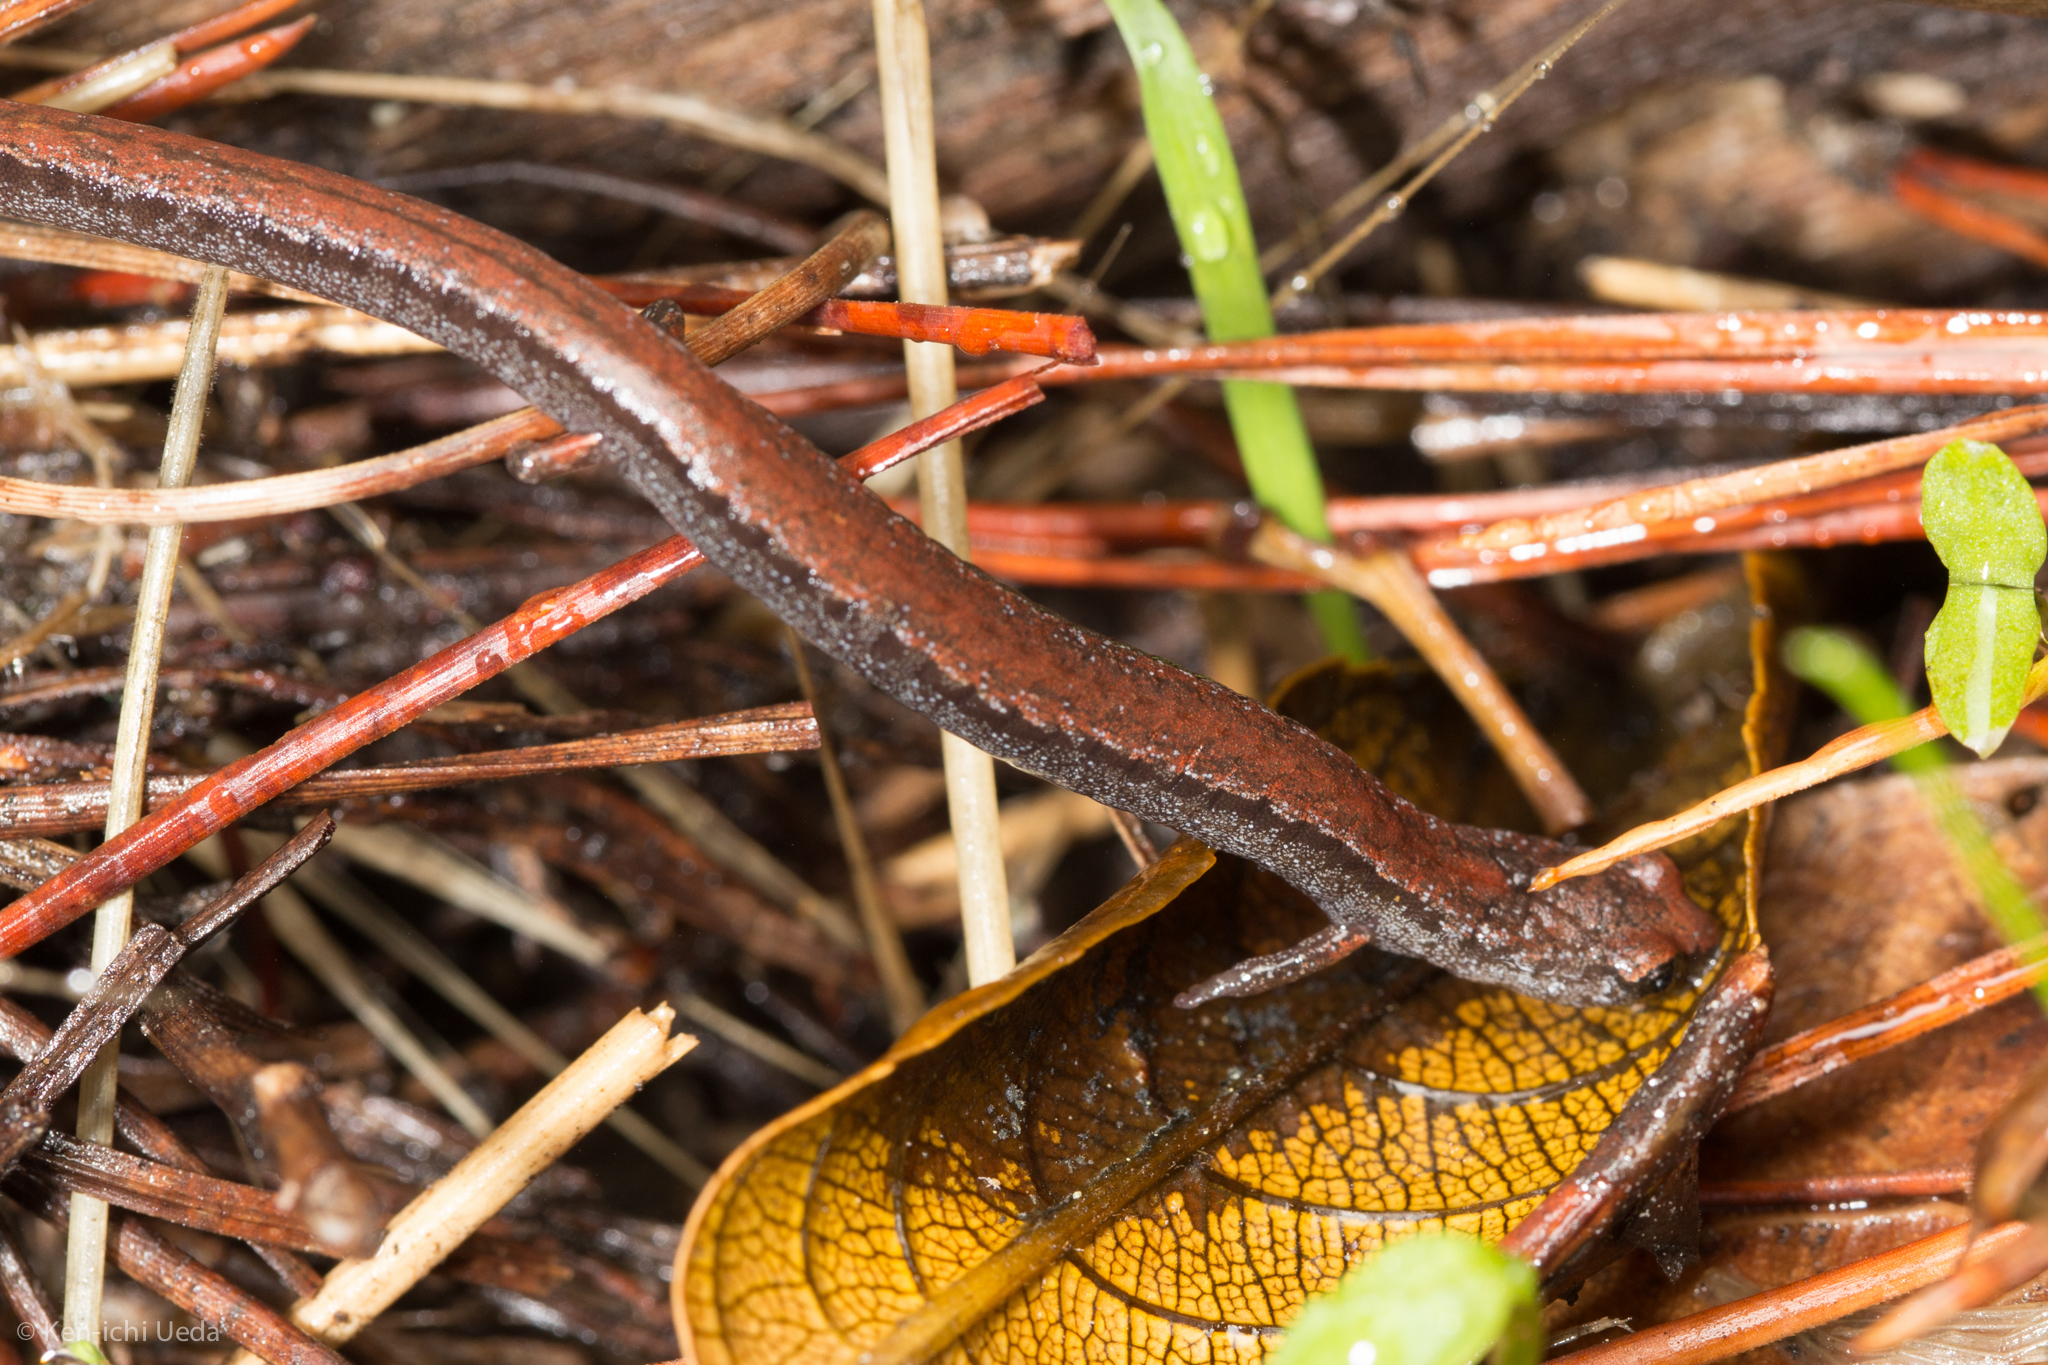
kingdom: Animalia
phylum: Chordata
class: Amphibia
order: Caudata
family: Plethodontidae
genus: Batrachoseps
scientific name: Batrachoseps attenuatus
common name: California slender salamander
